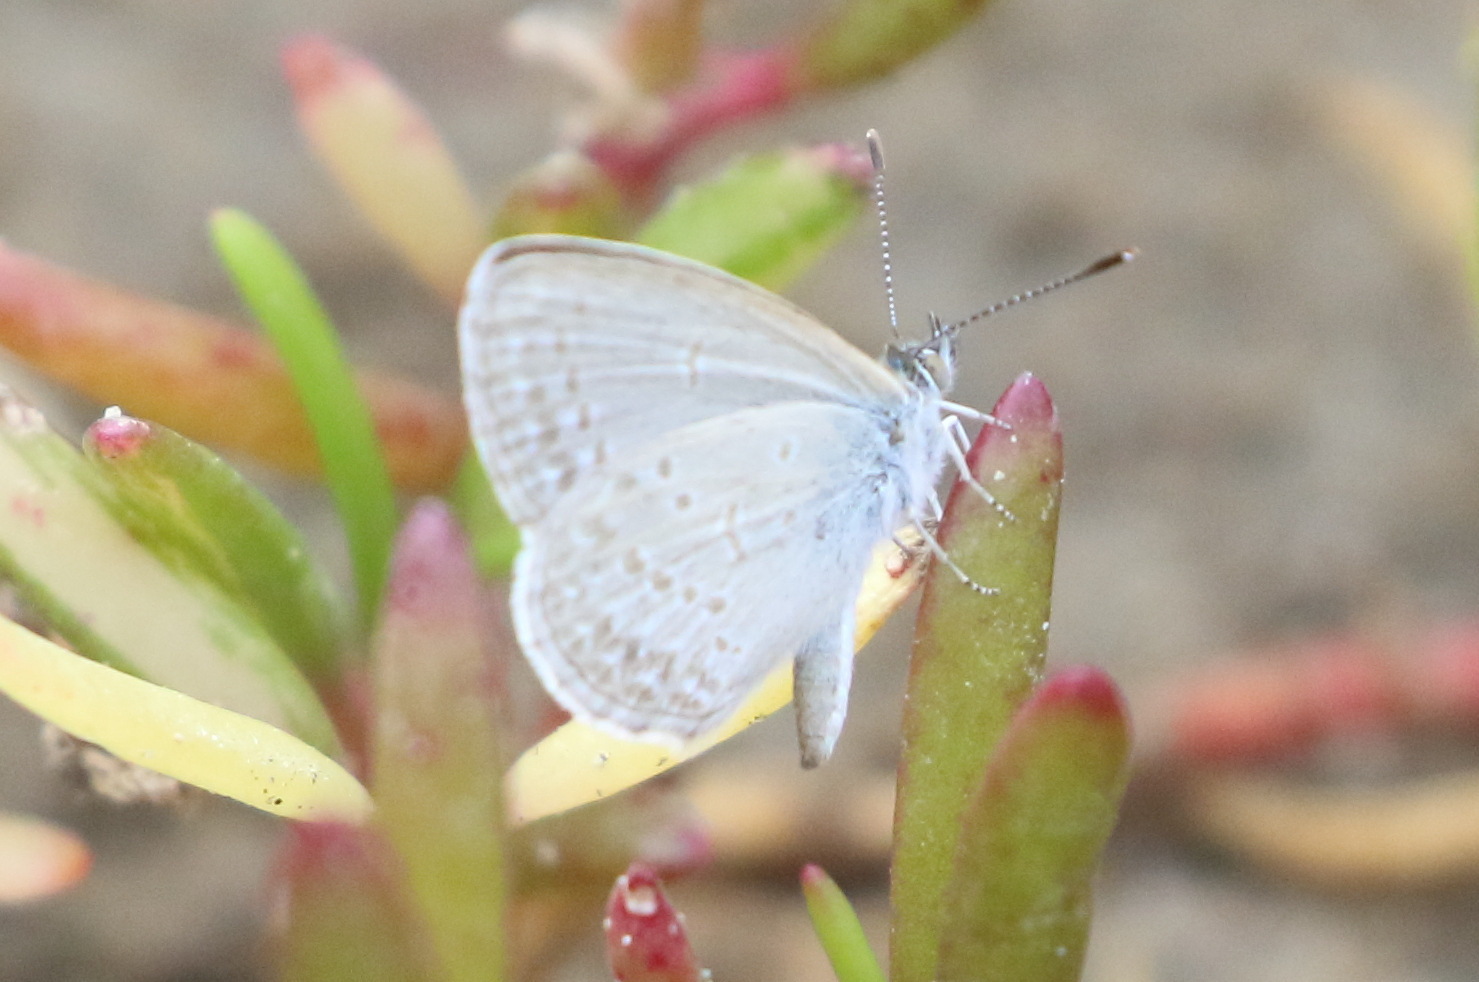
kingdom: Animalia
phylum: Arthropoda
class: Insecta
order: Lepidoptera
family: Lycaenidae
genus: Zizina
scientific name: Zizina otis
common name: Lesser grass blue
